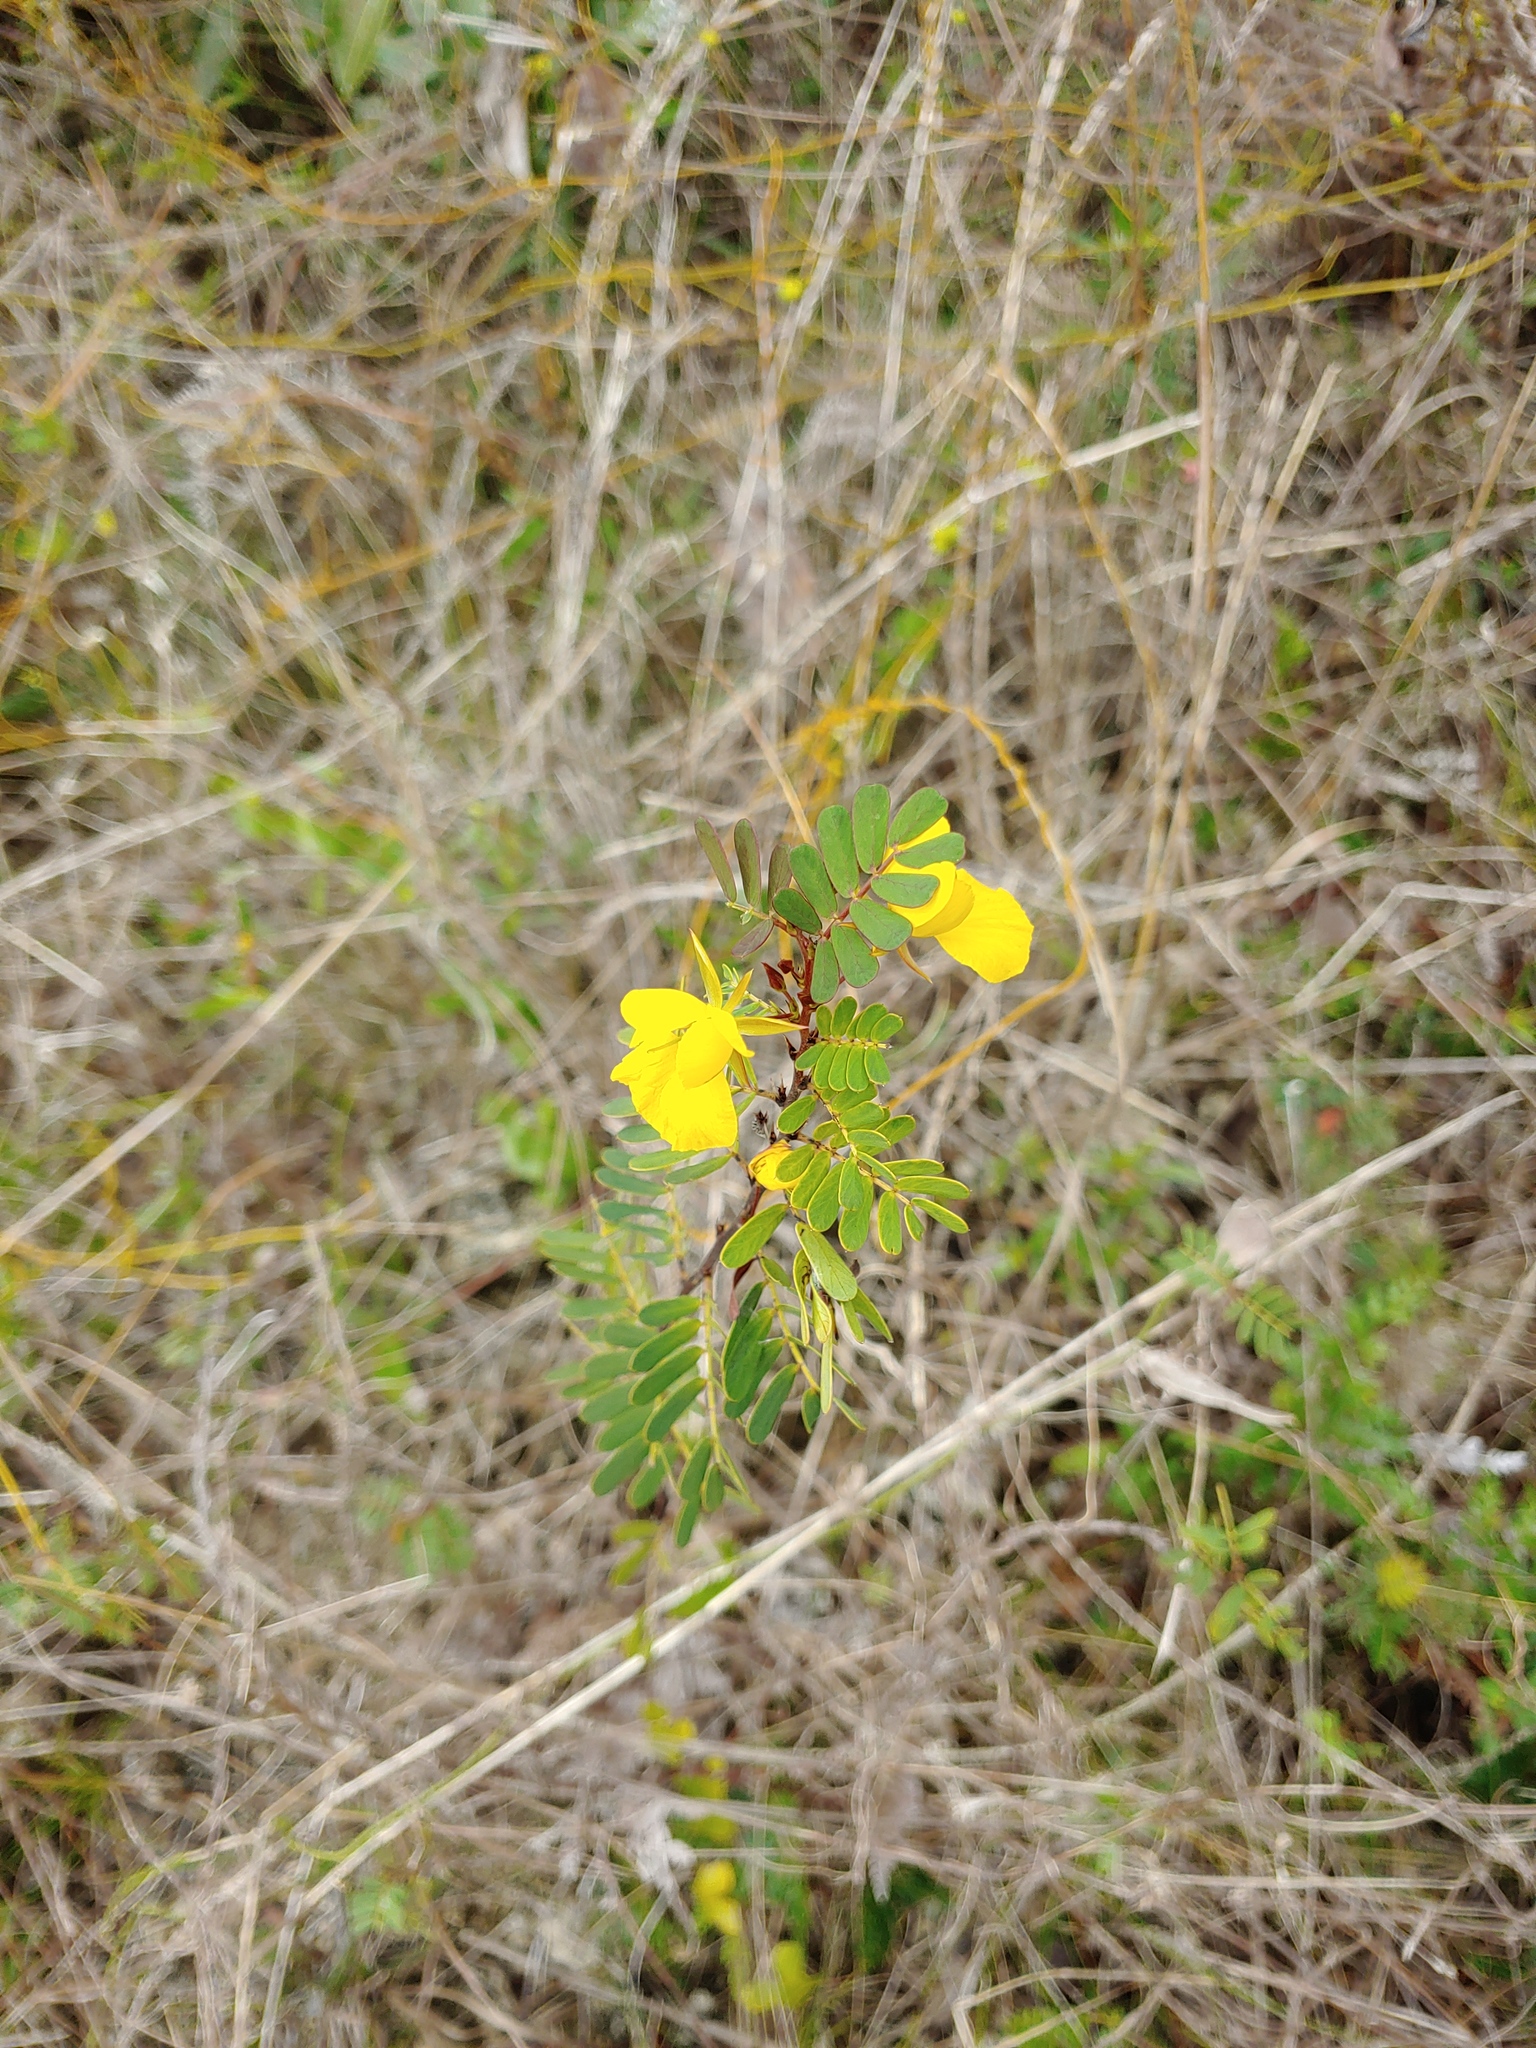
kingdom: Plantae
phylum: Tracheophyta
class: Magnoliopsida
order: Fabales
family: Fabaceae
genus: Chamaecrista
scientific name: Chamaecrista lineata
